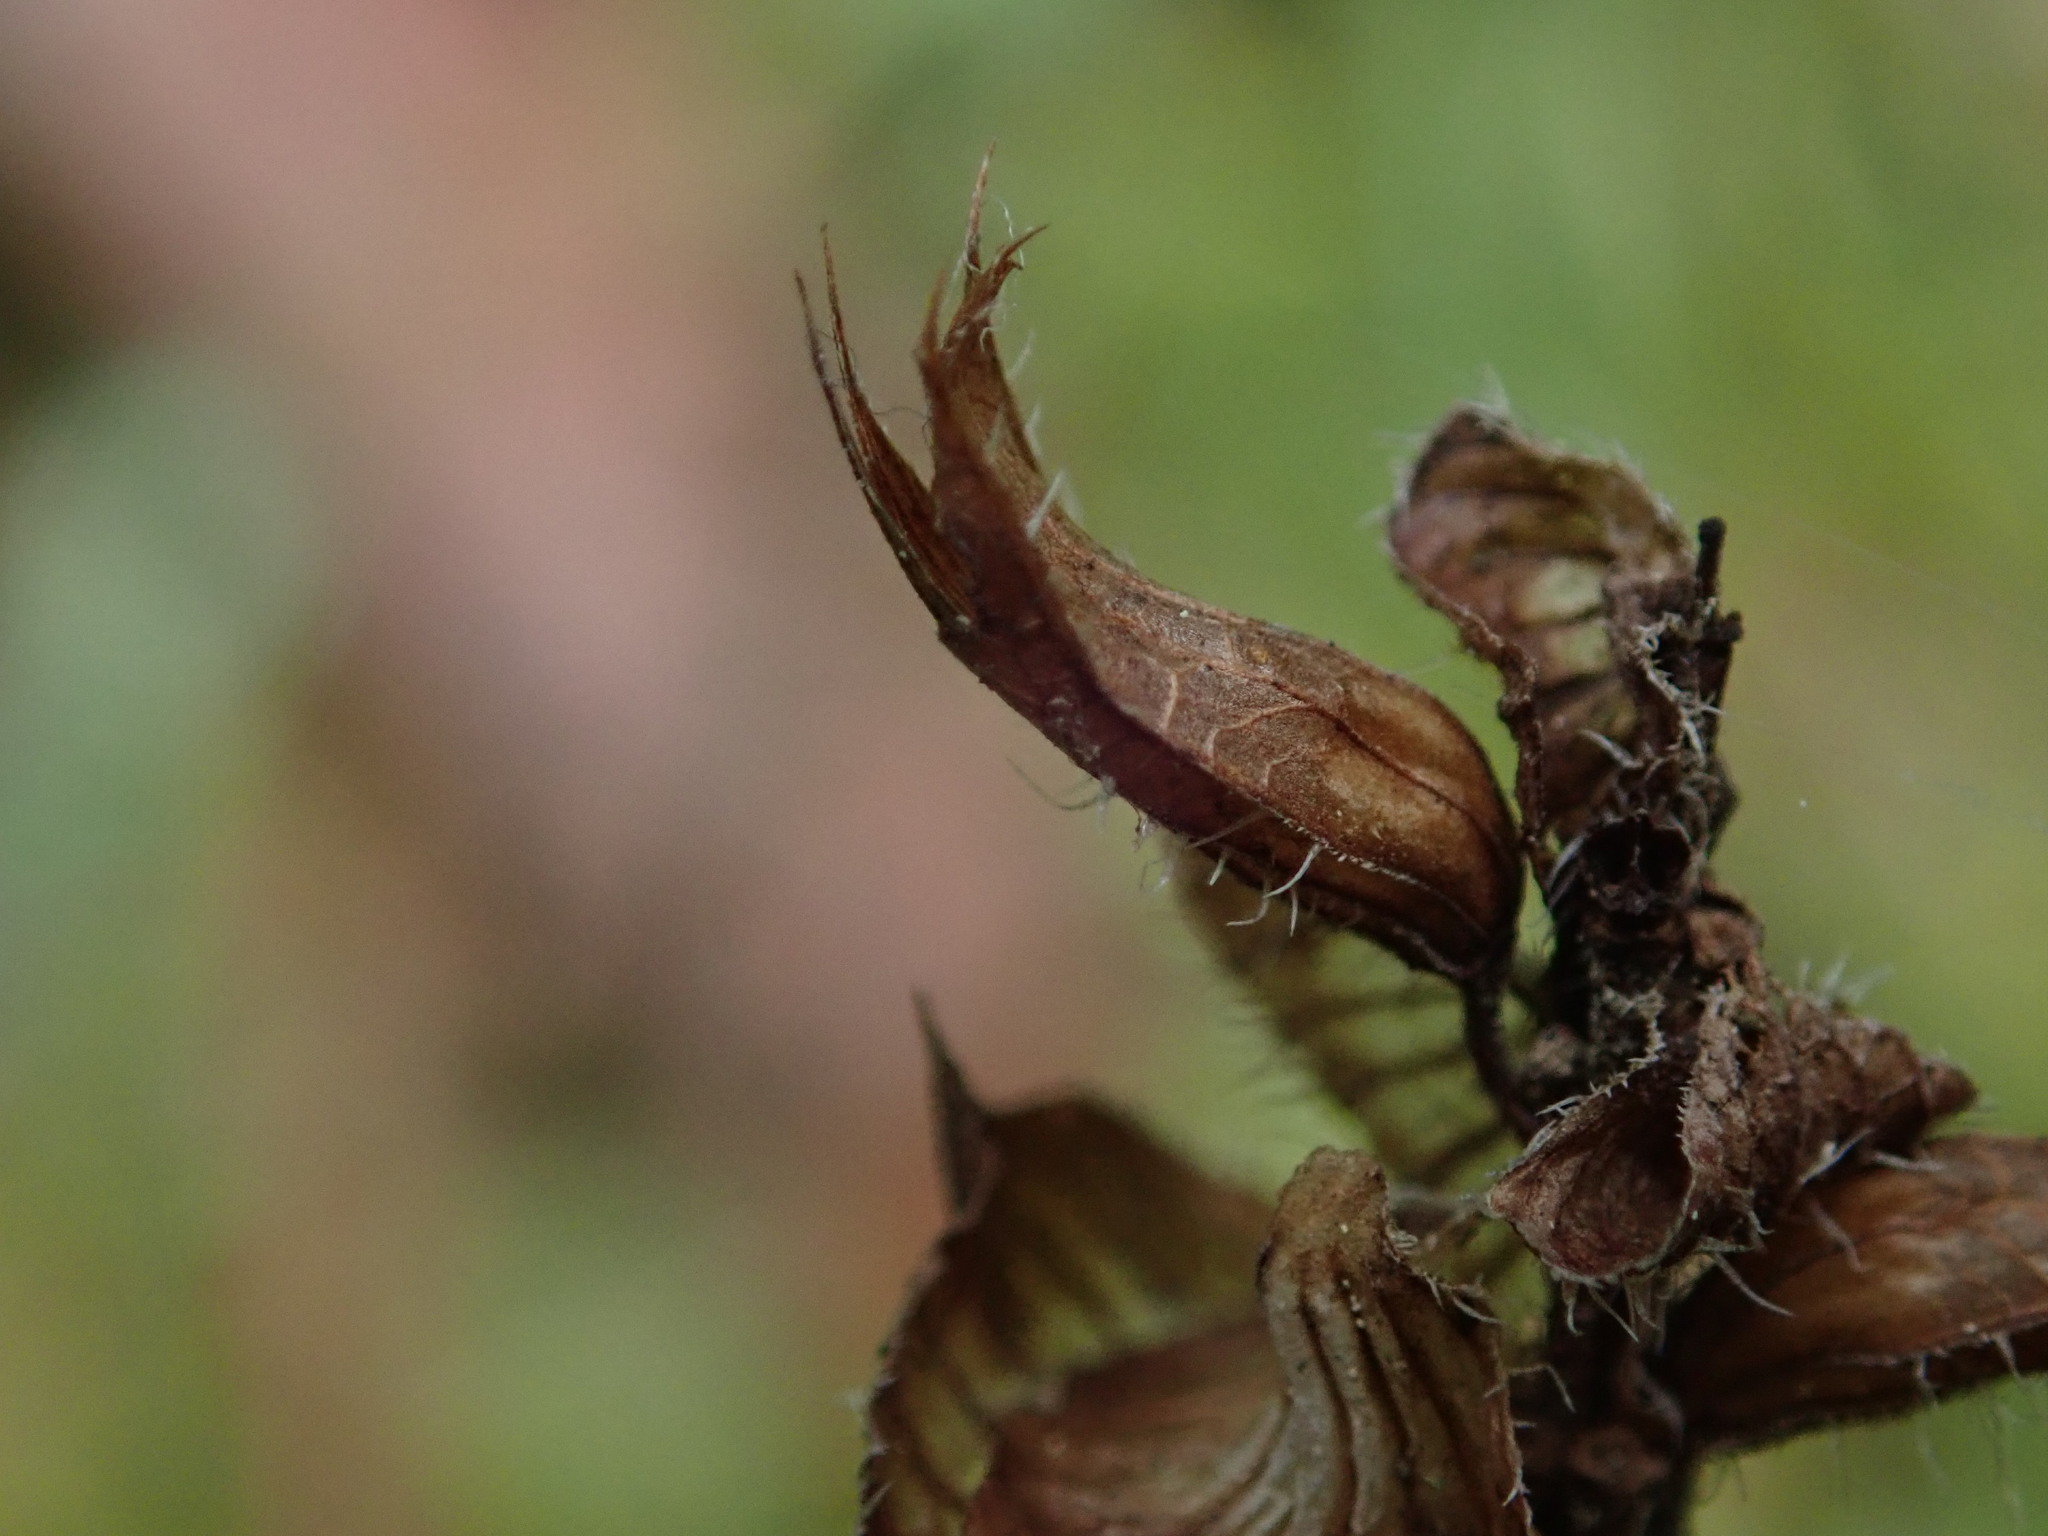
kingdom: Plantae
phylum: Tracheophyta
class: Magnoliopsida
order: Lamiales
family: Lamiaceae
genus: Prunella
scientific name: Prunella vulgaris
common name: Heal-all
